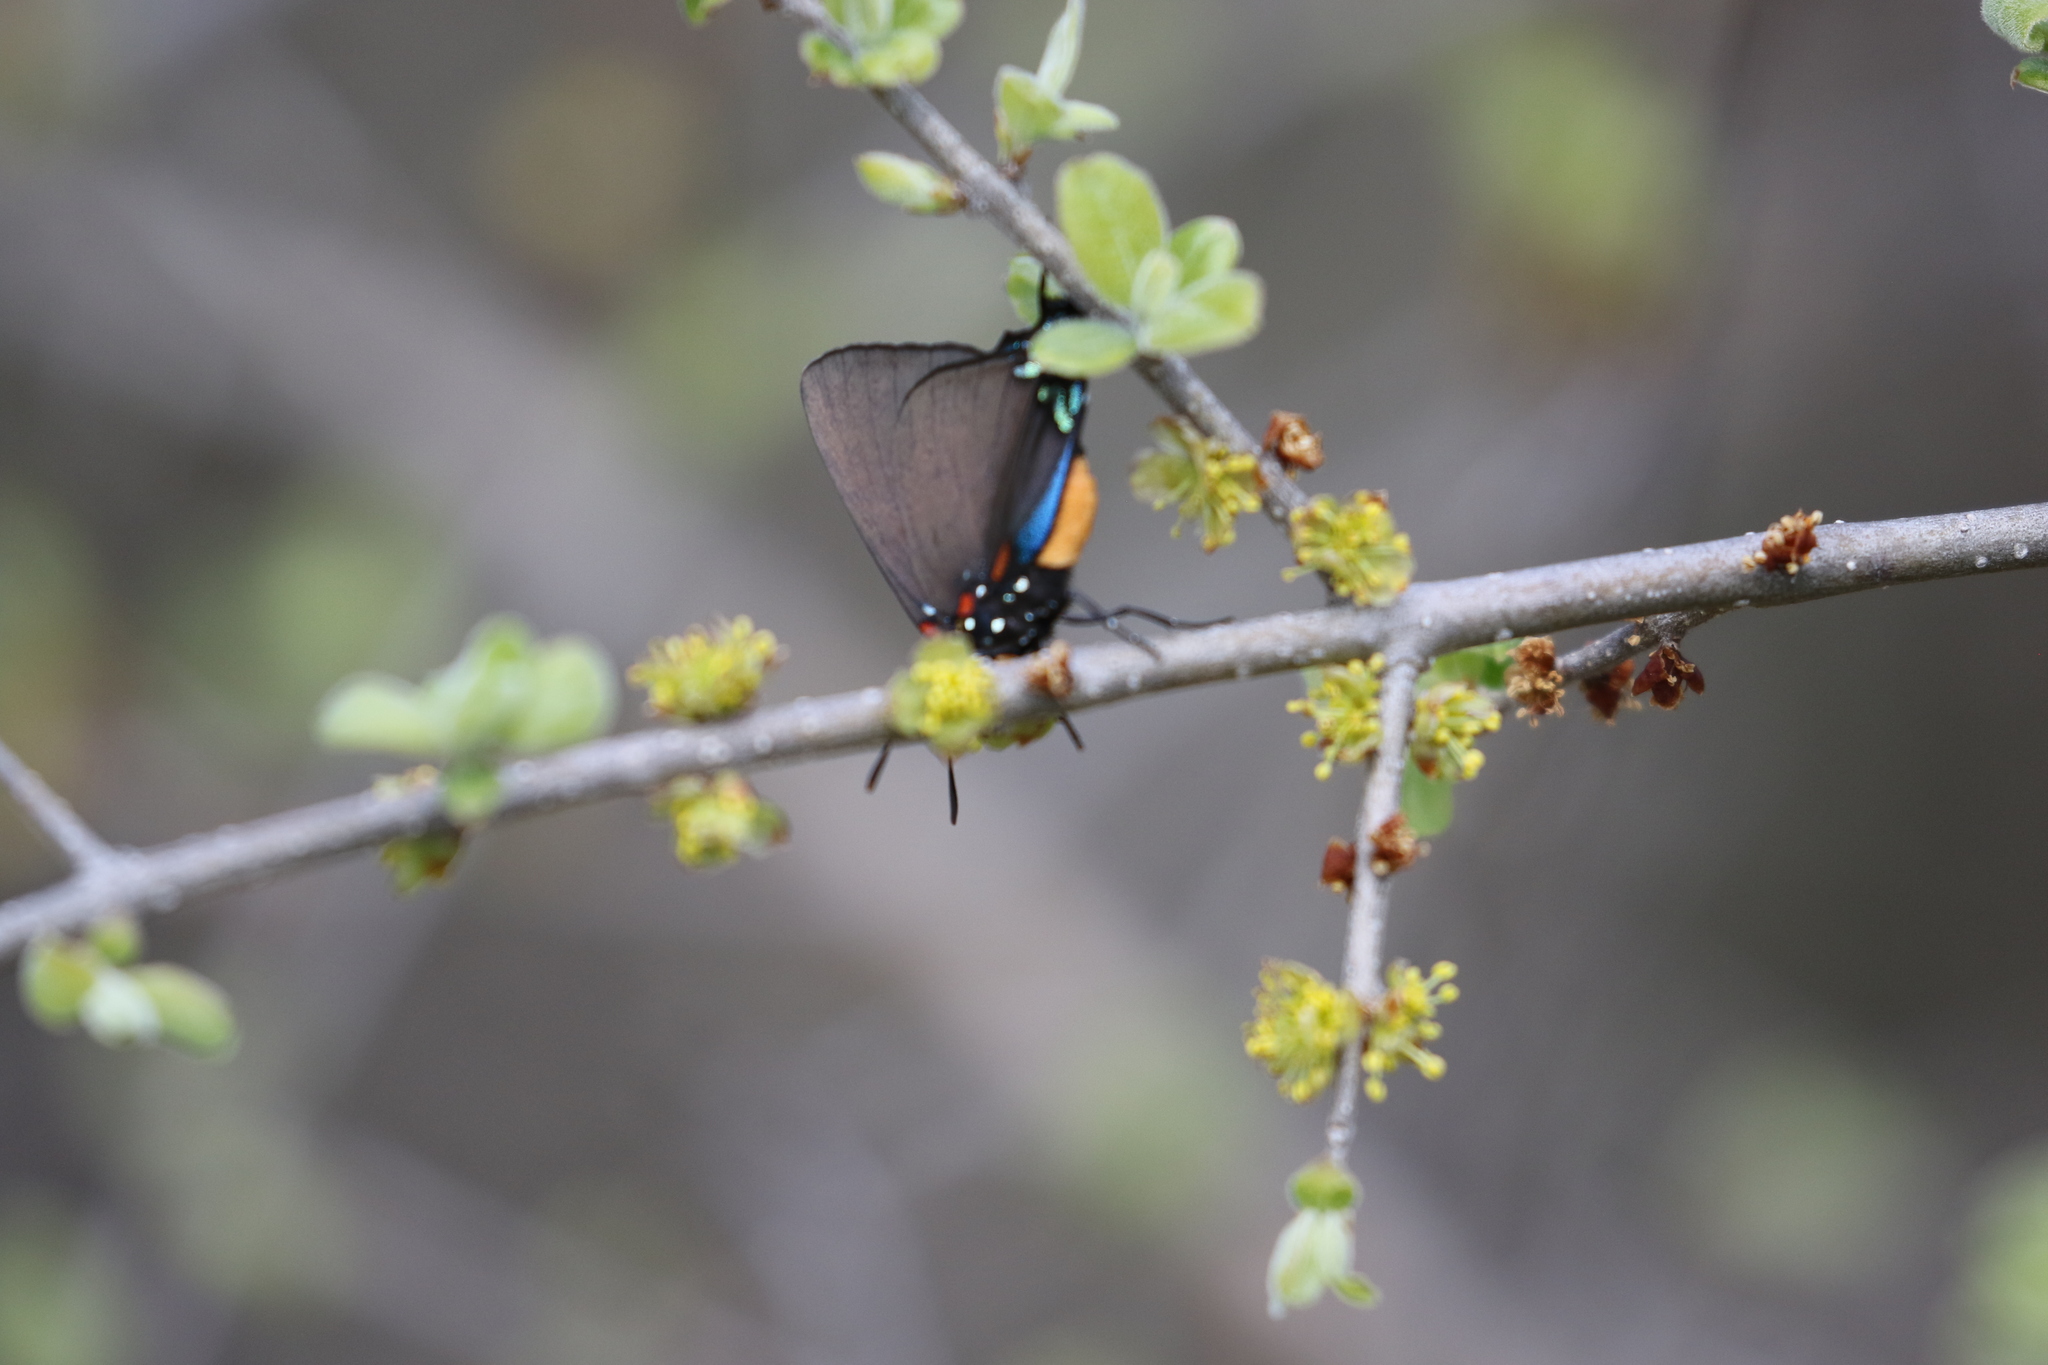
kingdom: Animalia
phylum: Arthropoda
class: Insecta
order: Lepidoptera
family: Lycaenidae
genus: Atlides
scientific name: Atlides halesus
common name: Great purple hairstreak
